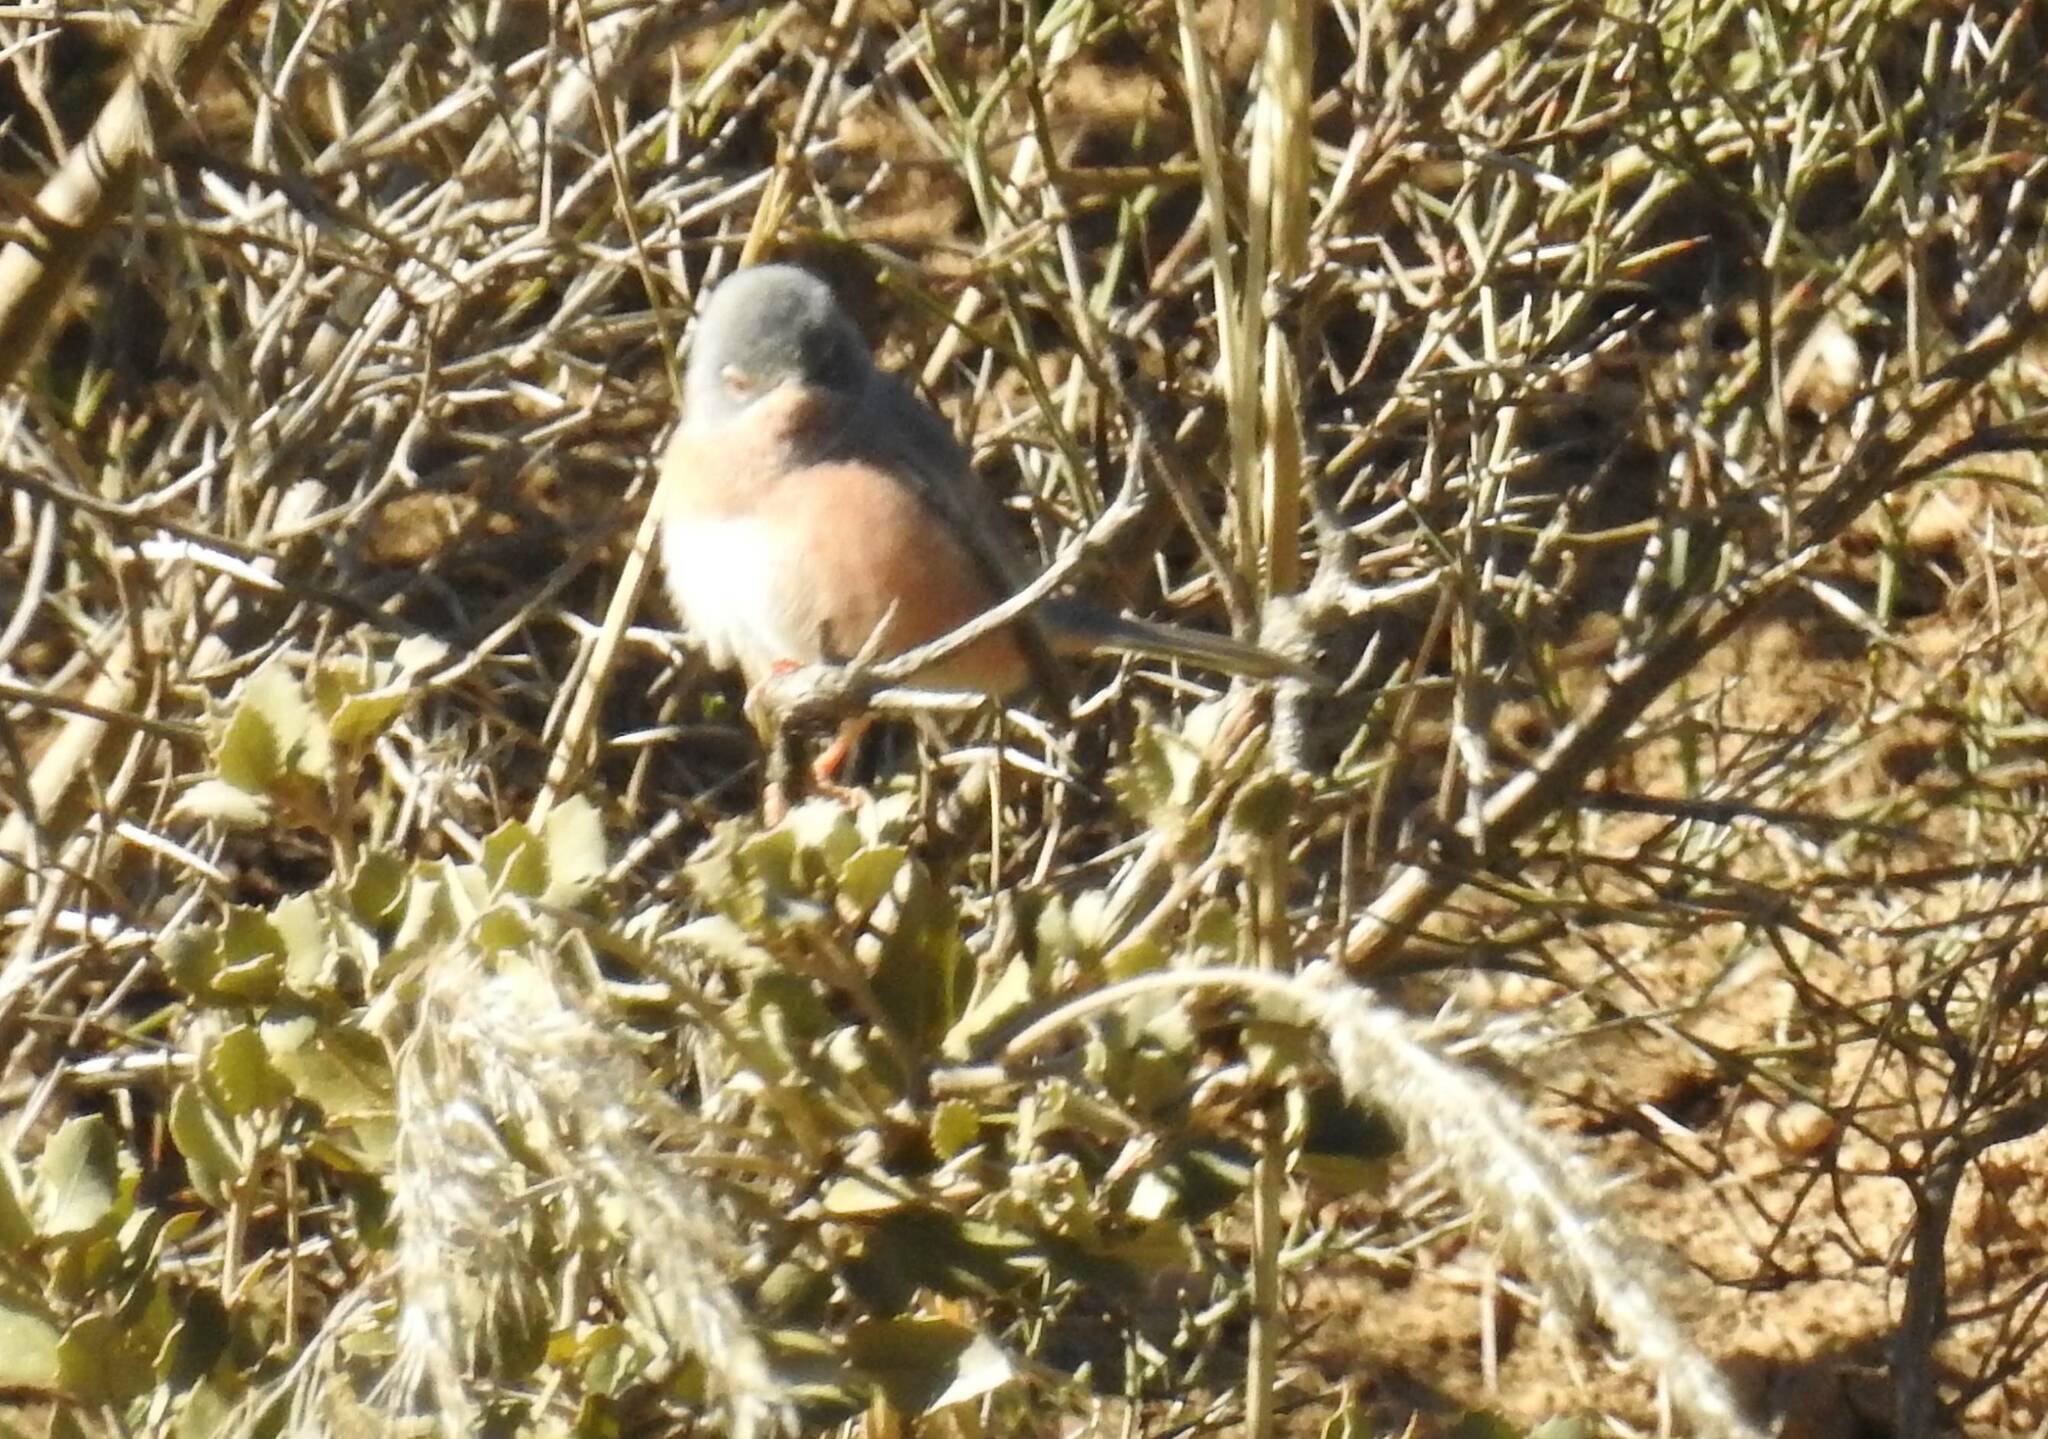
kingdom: Animalia
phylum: Chordata
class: Aves
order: Passeriformes
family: Sylviidae
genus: Sylvia
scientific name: Sylvia deserticola
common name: Tristram's warbler
